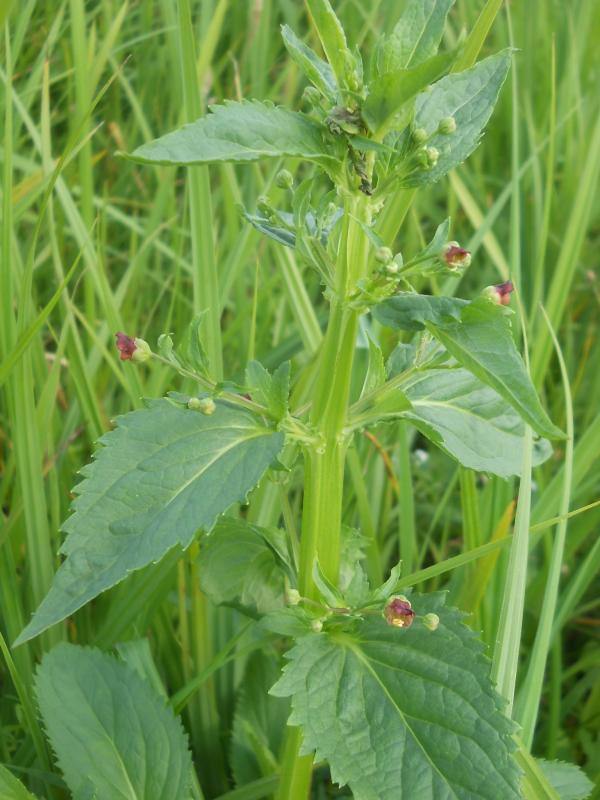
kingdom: Plantae
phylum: Tracheophyta
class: Magnoliopsida
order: Lamiales
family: Scrophulariaceae
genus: Scrophularia
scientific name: Scrophularia umbrosa
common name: Green figwort
